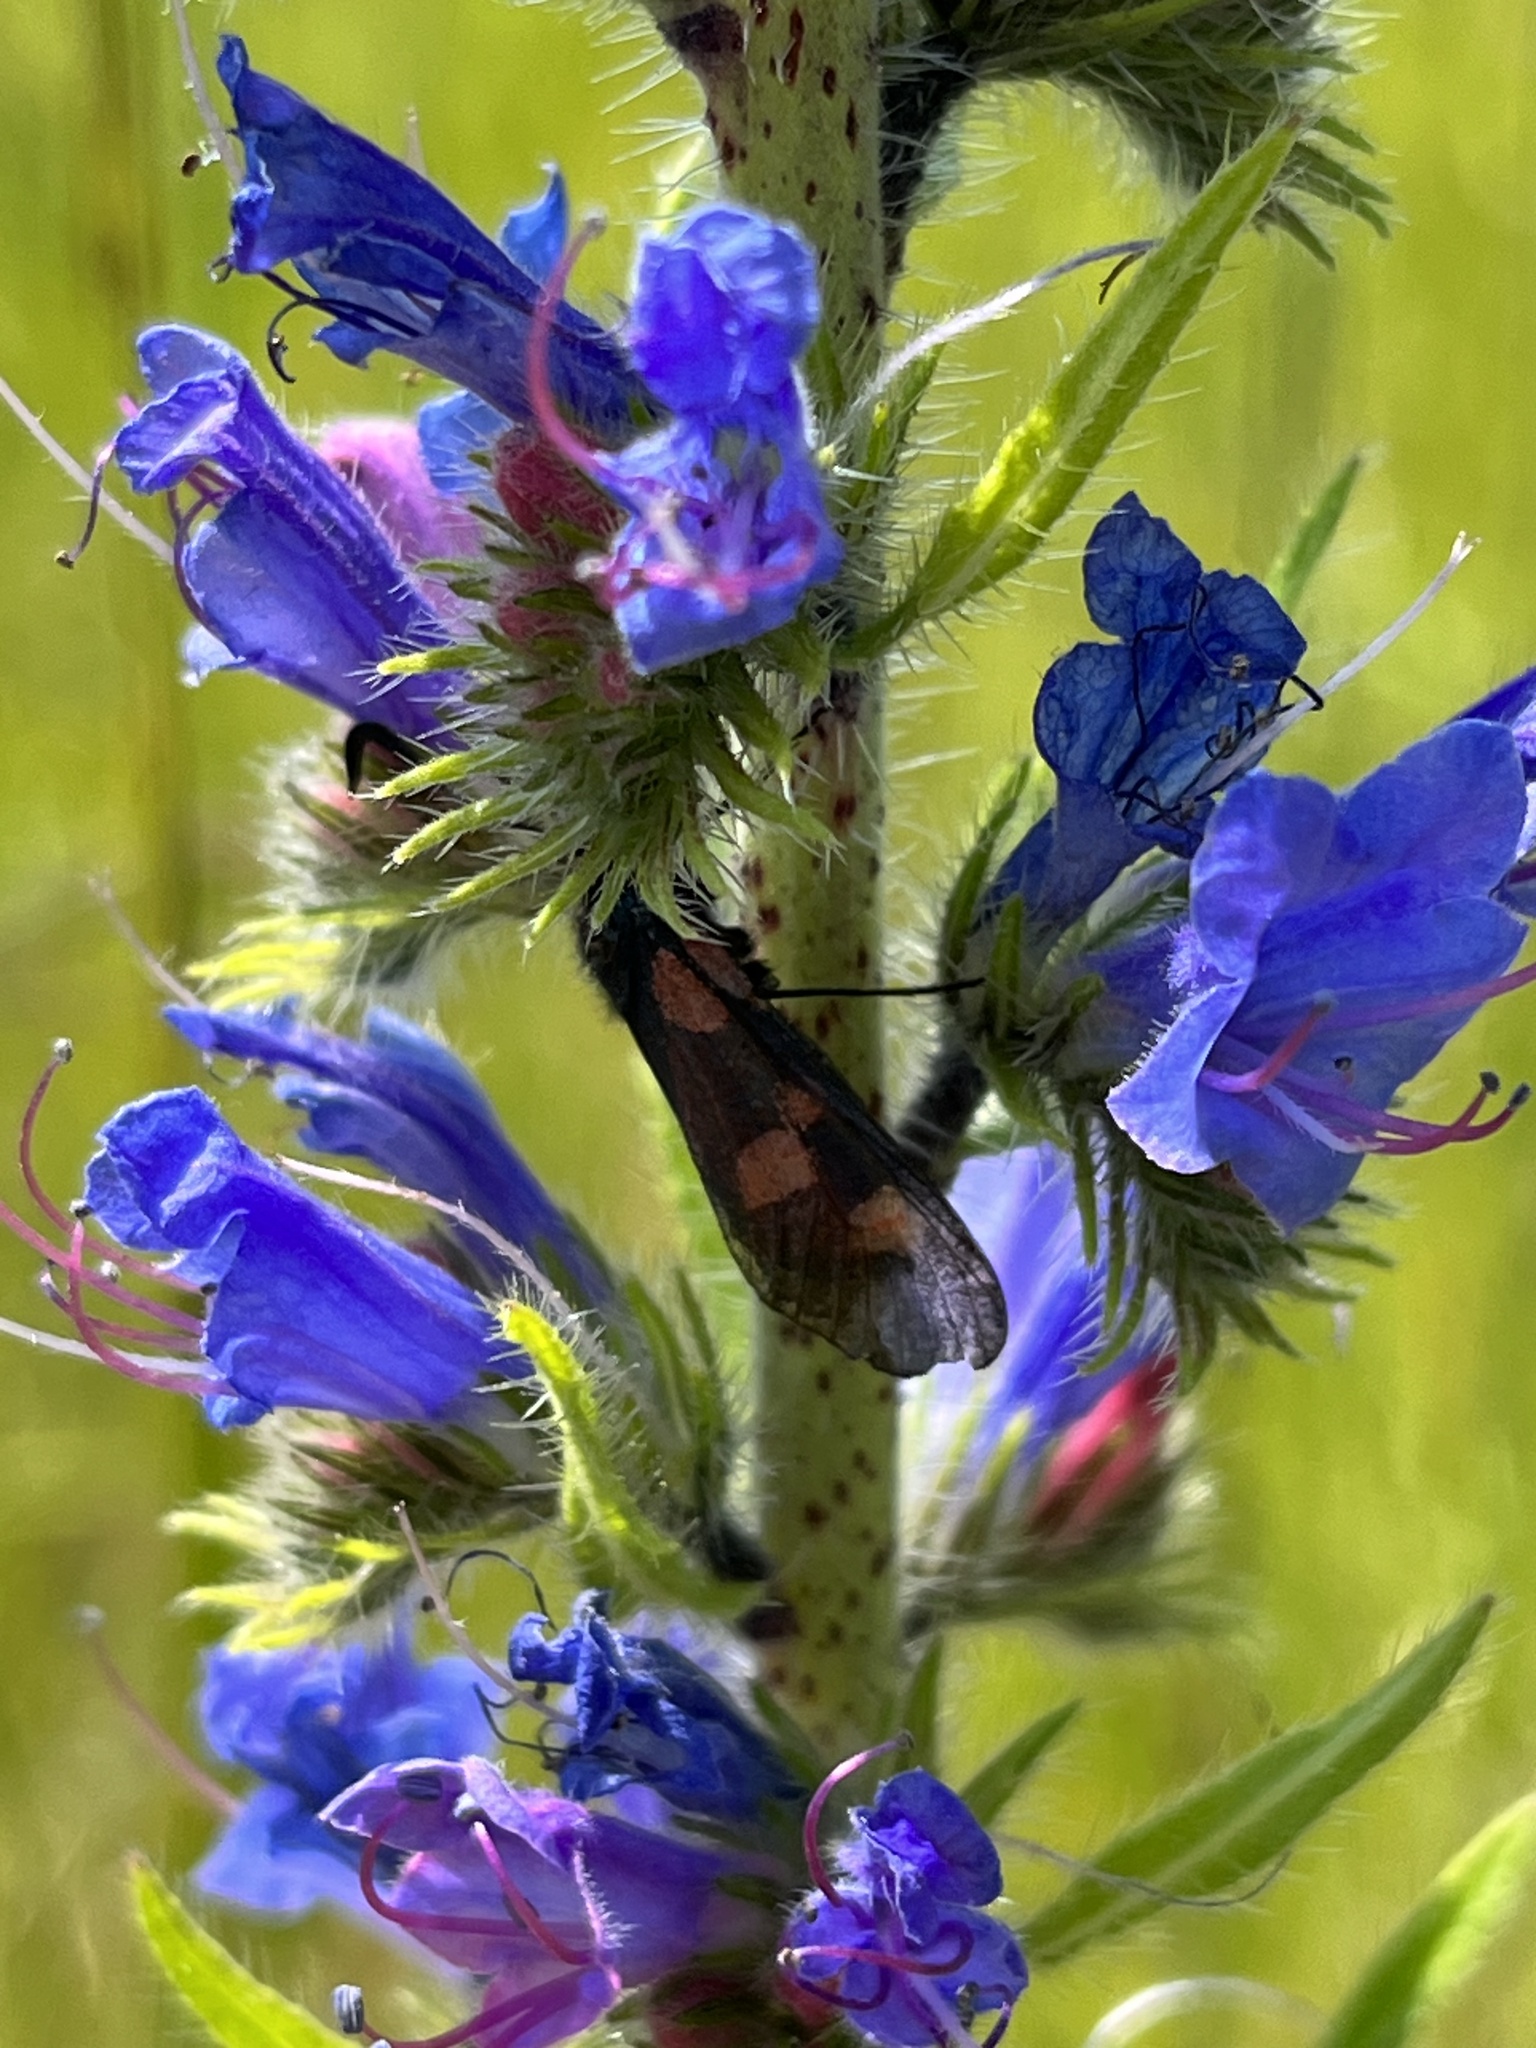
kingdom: Animalia
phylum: Arthropoda
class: Insecta
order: Lepidoptera
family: Zygaenidae
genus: Zygaena
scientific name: Zygaena lonicerae
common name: Narrow-bordered five-spot burnet
